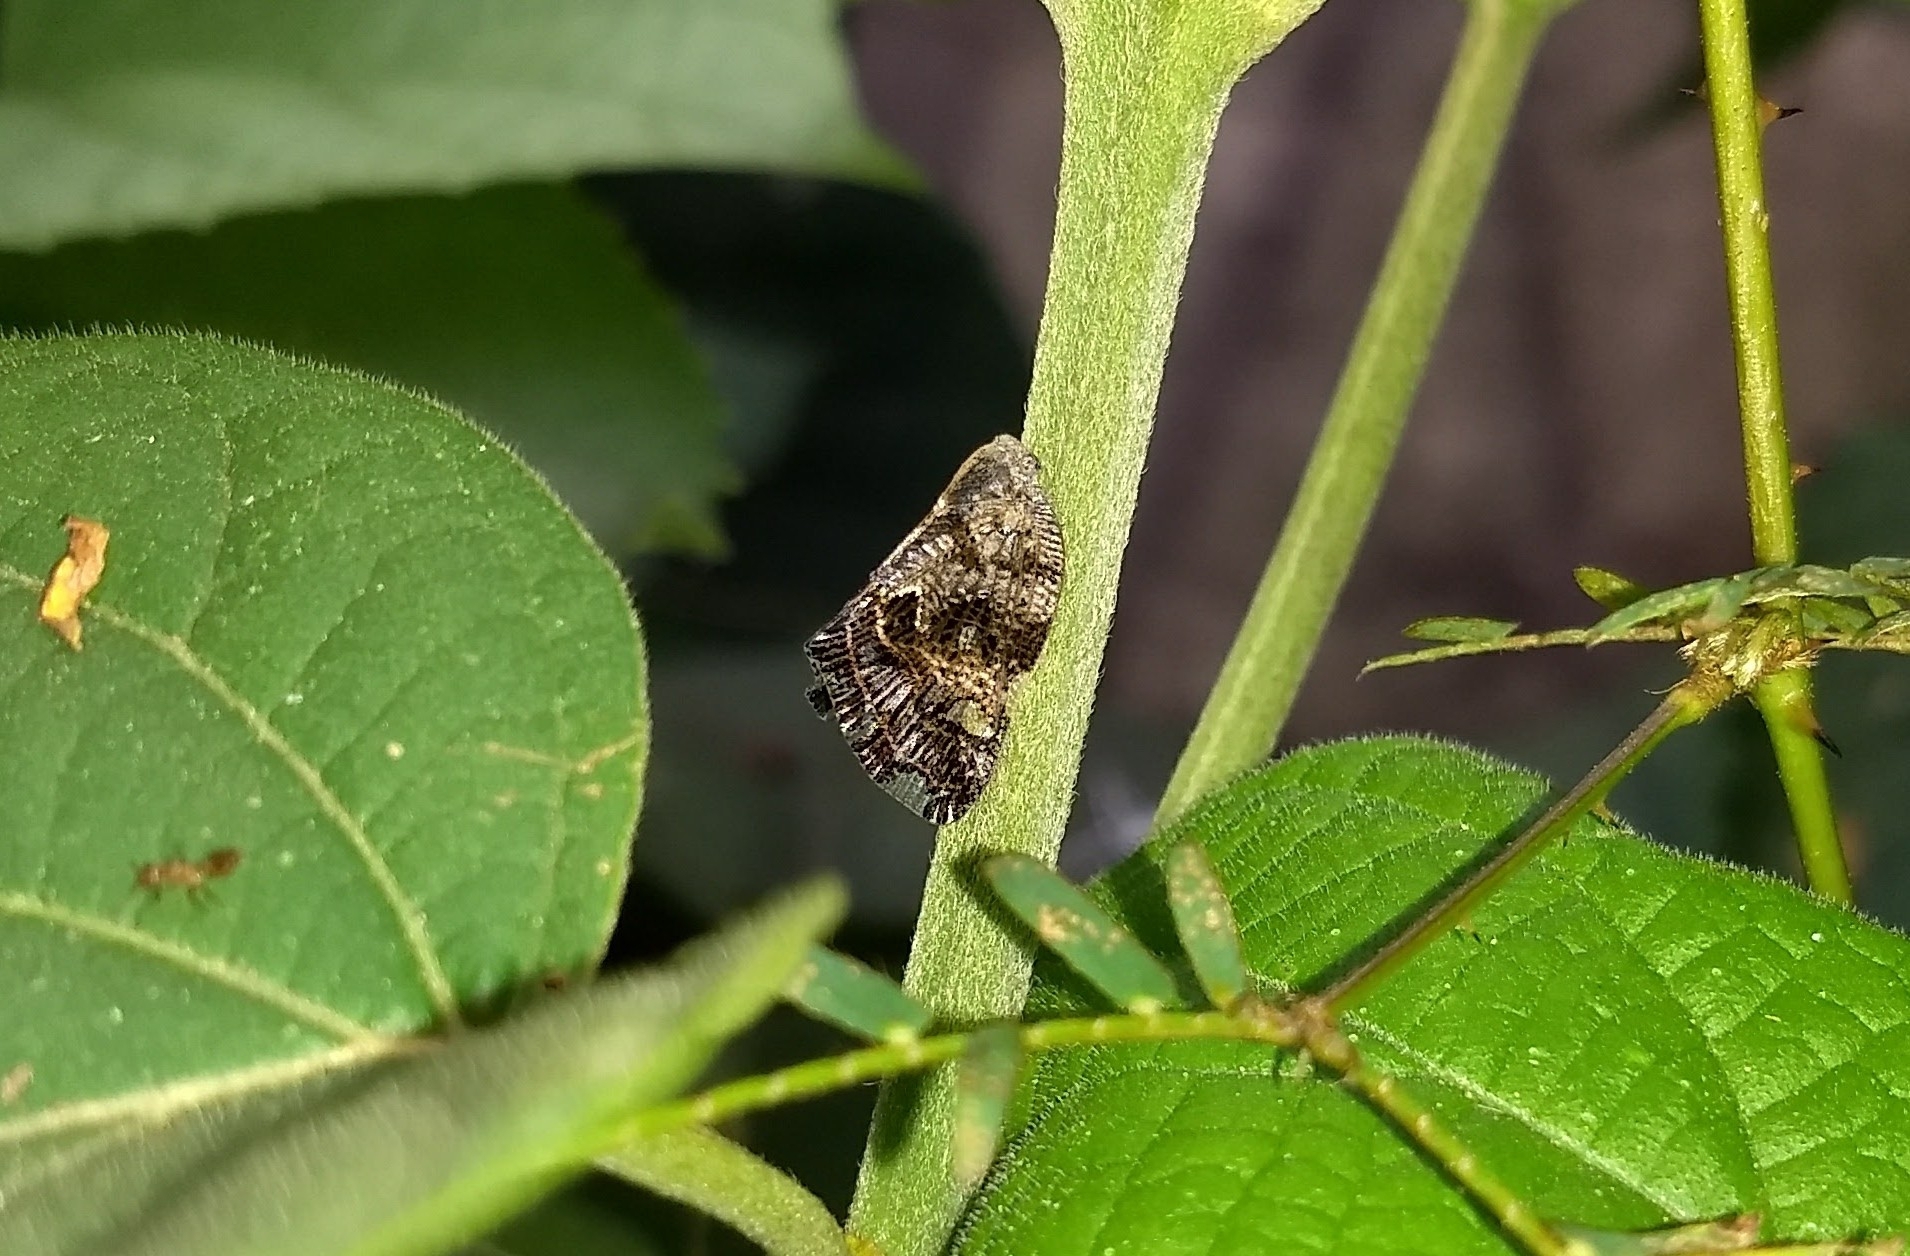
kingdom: Animalia
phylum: Arthropoda
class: Insecta
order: Hemiptera
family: Ricaniidae
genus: Ricania
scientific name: Ricania speculum
